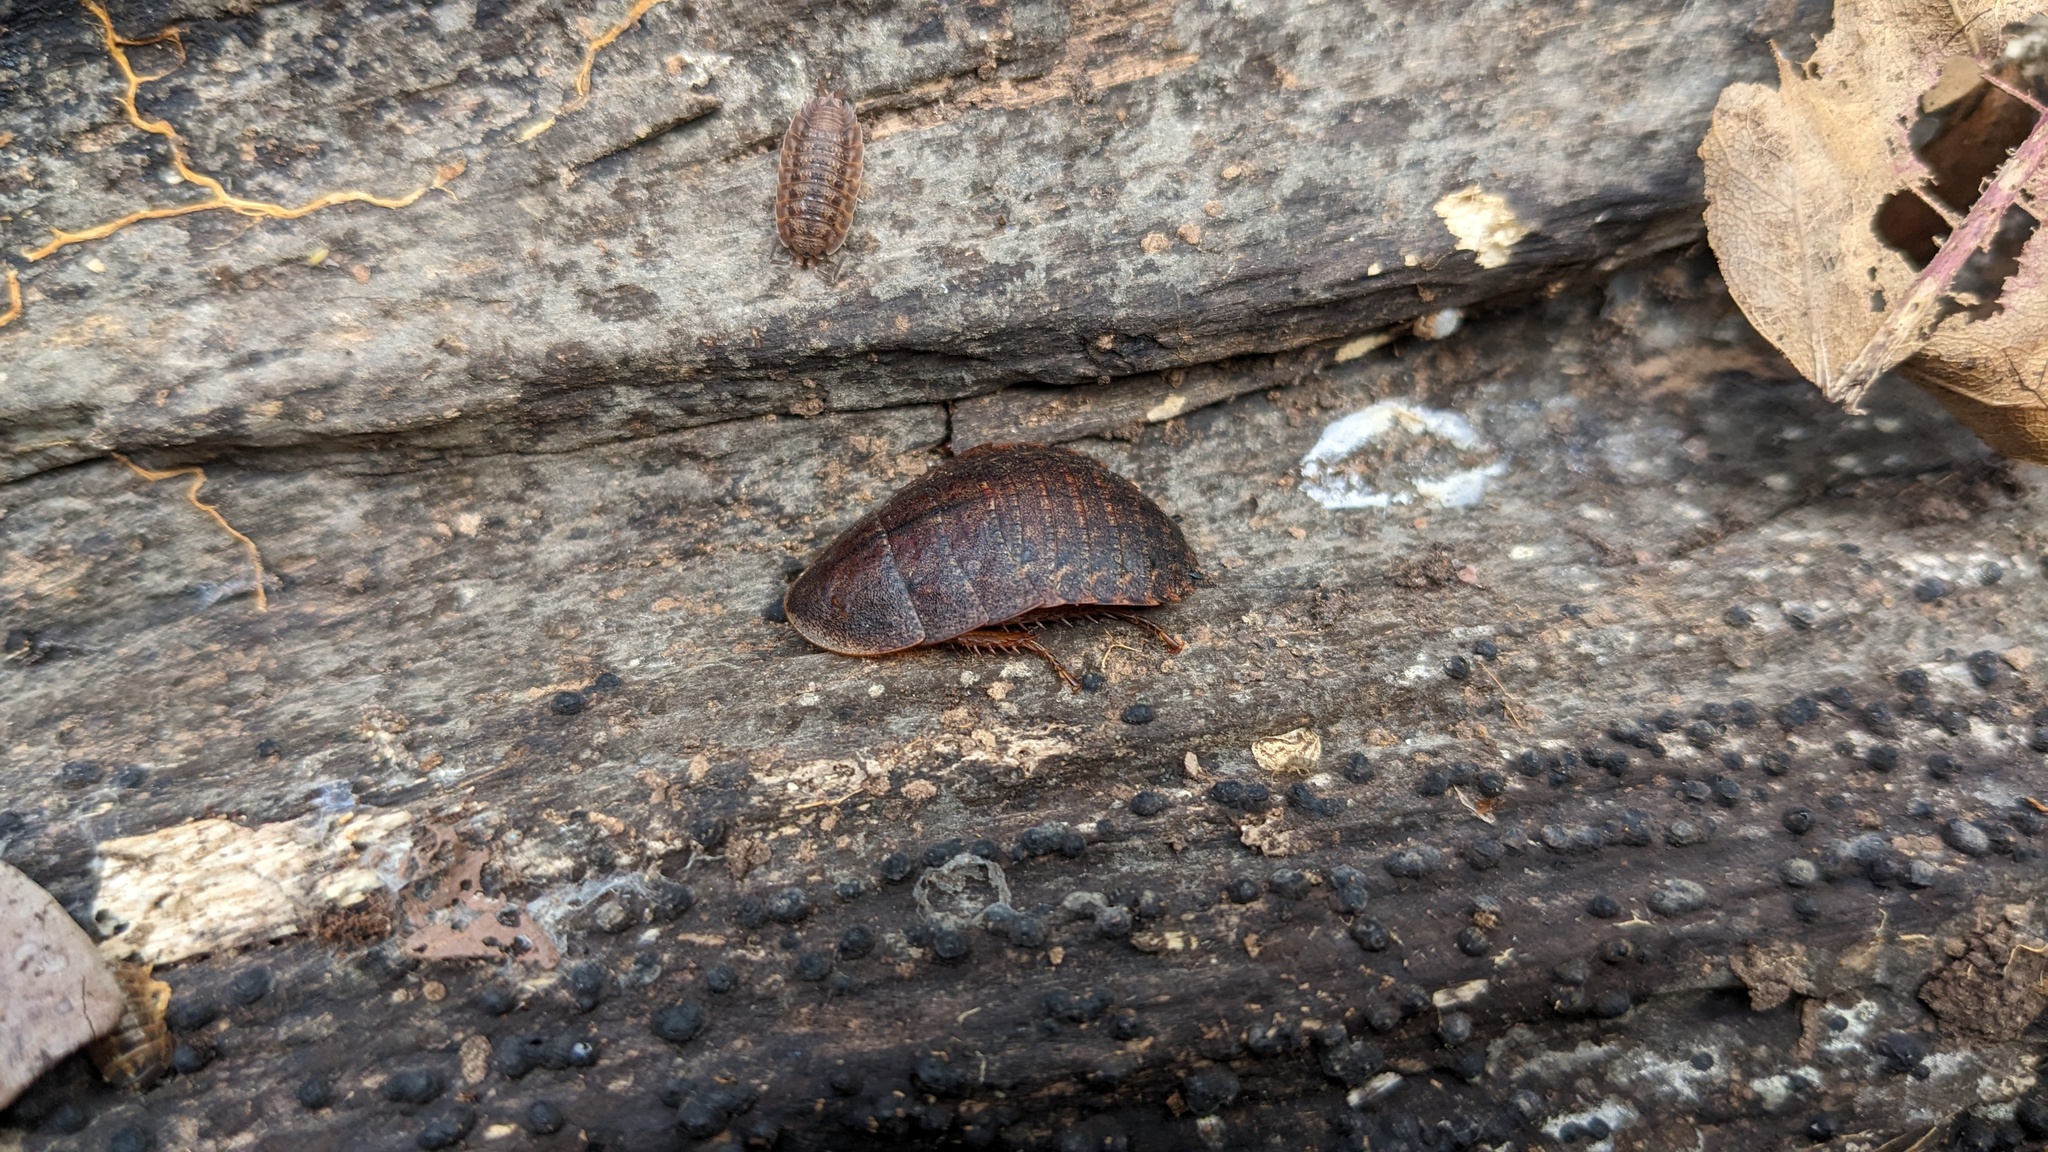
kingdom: Animalia
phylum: Arthropoda
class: Insecta
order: Blattodea
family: Blaberidae
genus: Opisthoplatia
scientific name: Opisthoplatia orientalis
